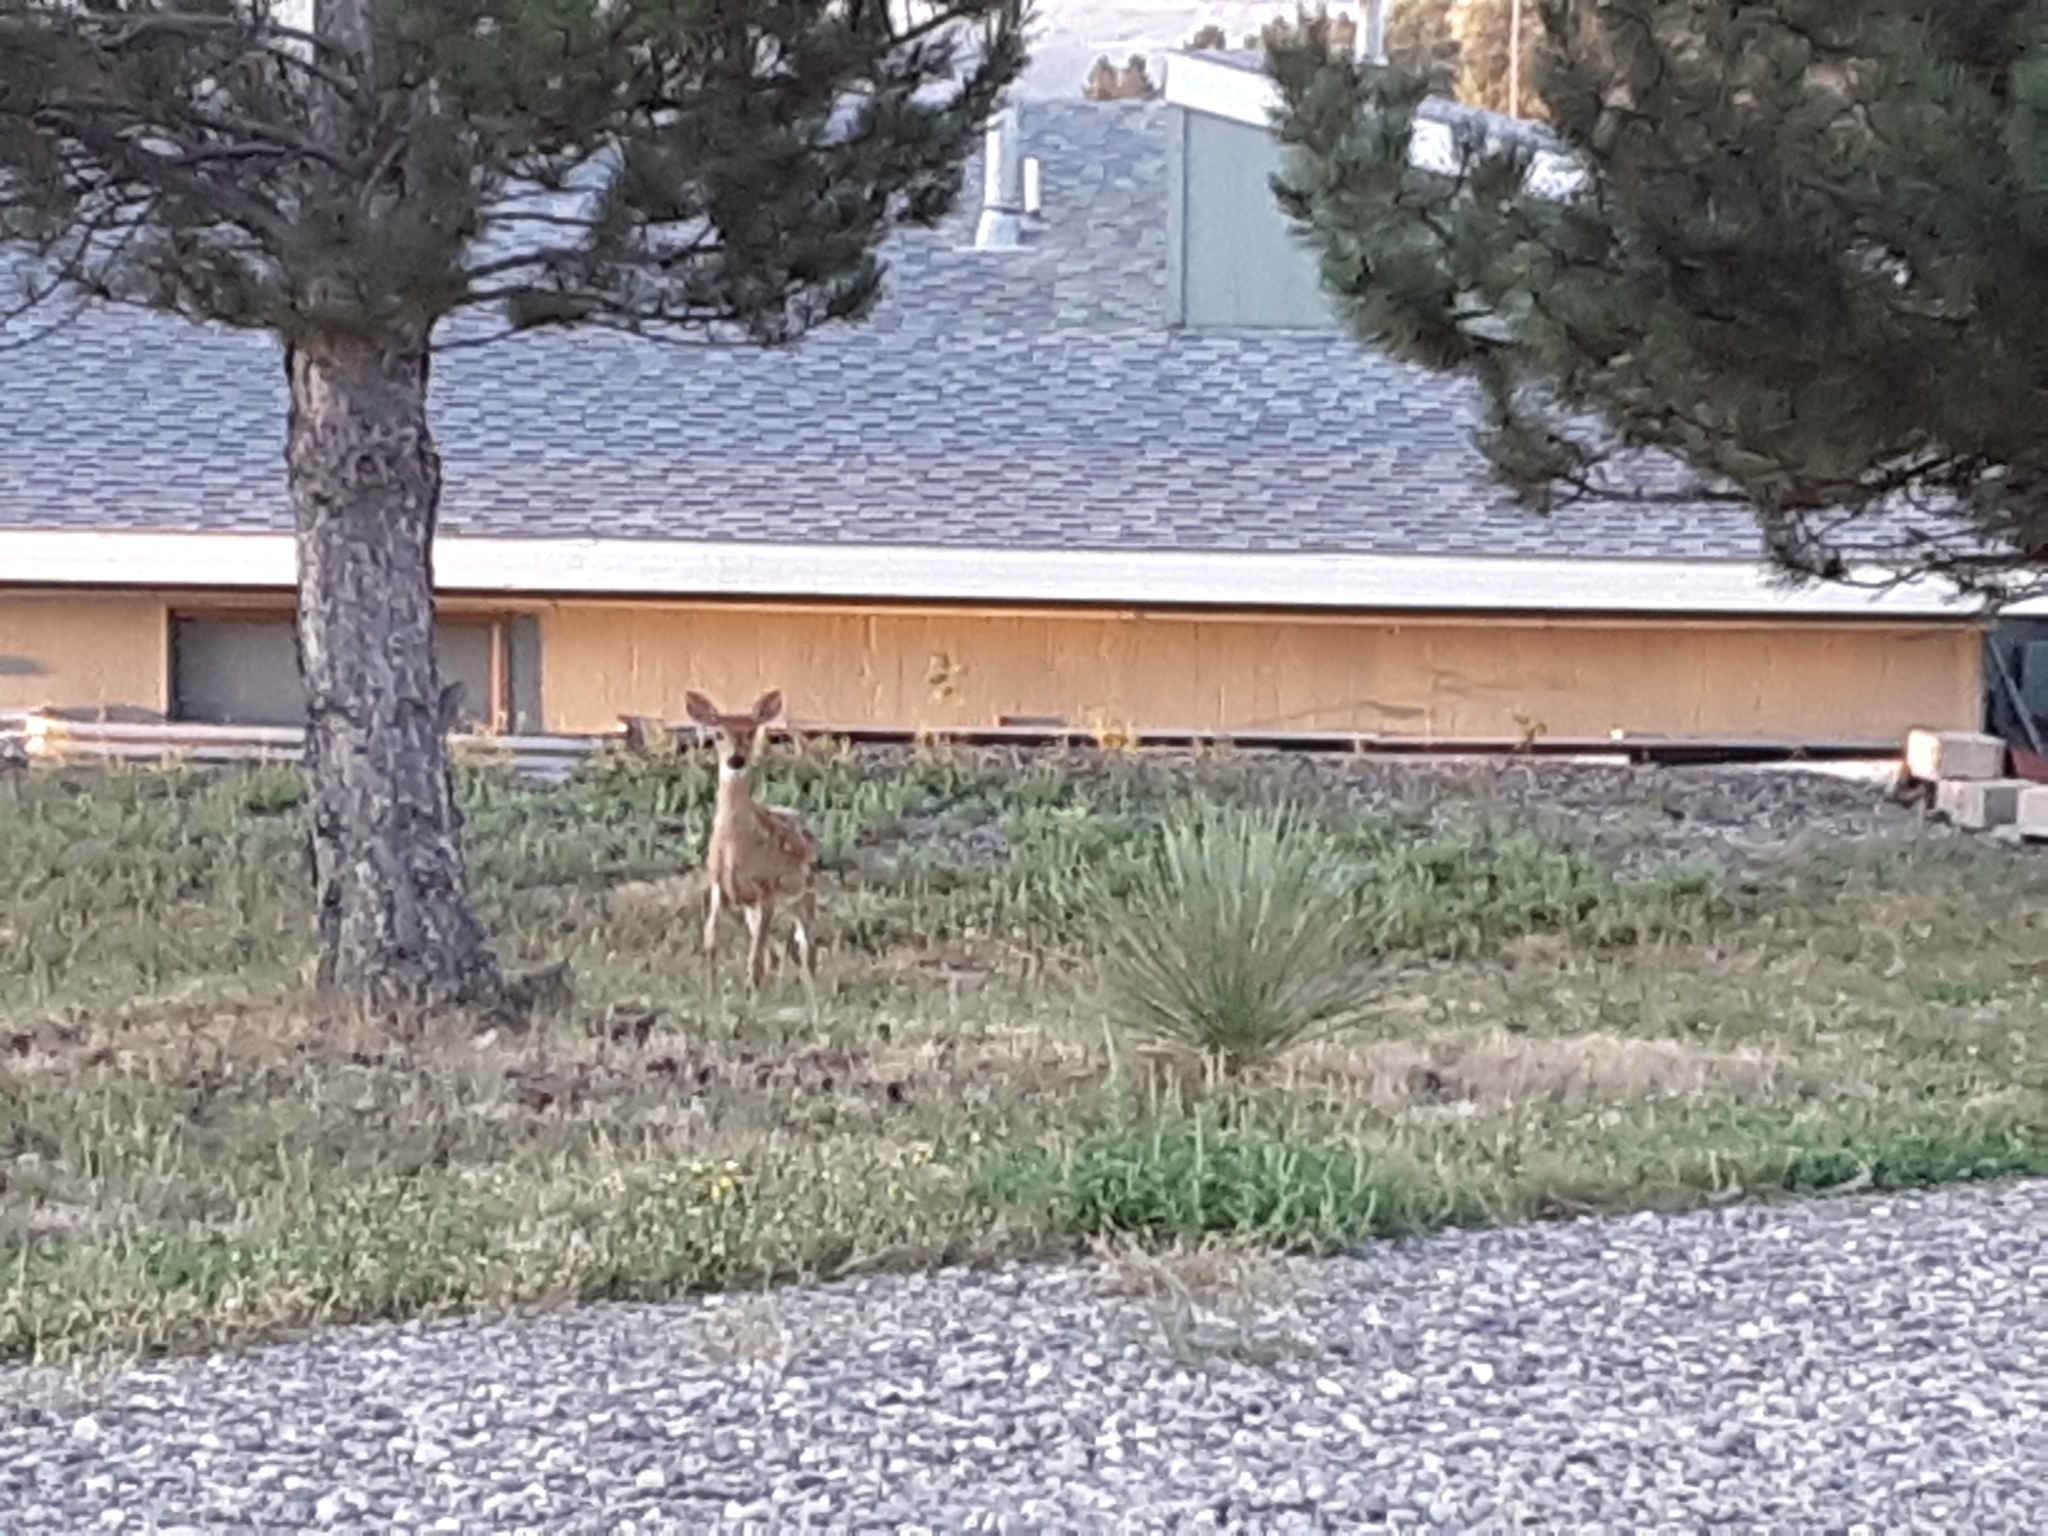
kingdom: Animalia
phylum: Chordata
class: Mammalia
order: Artiodactyla
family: Cervidae
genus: Odocoileus
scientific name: Odocoileus virginianus
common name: White-tailed deer
